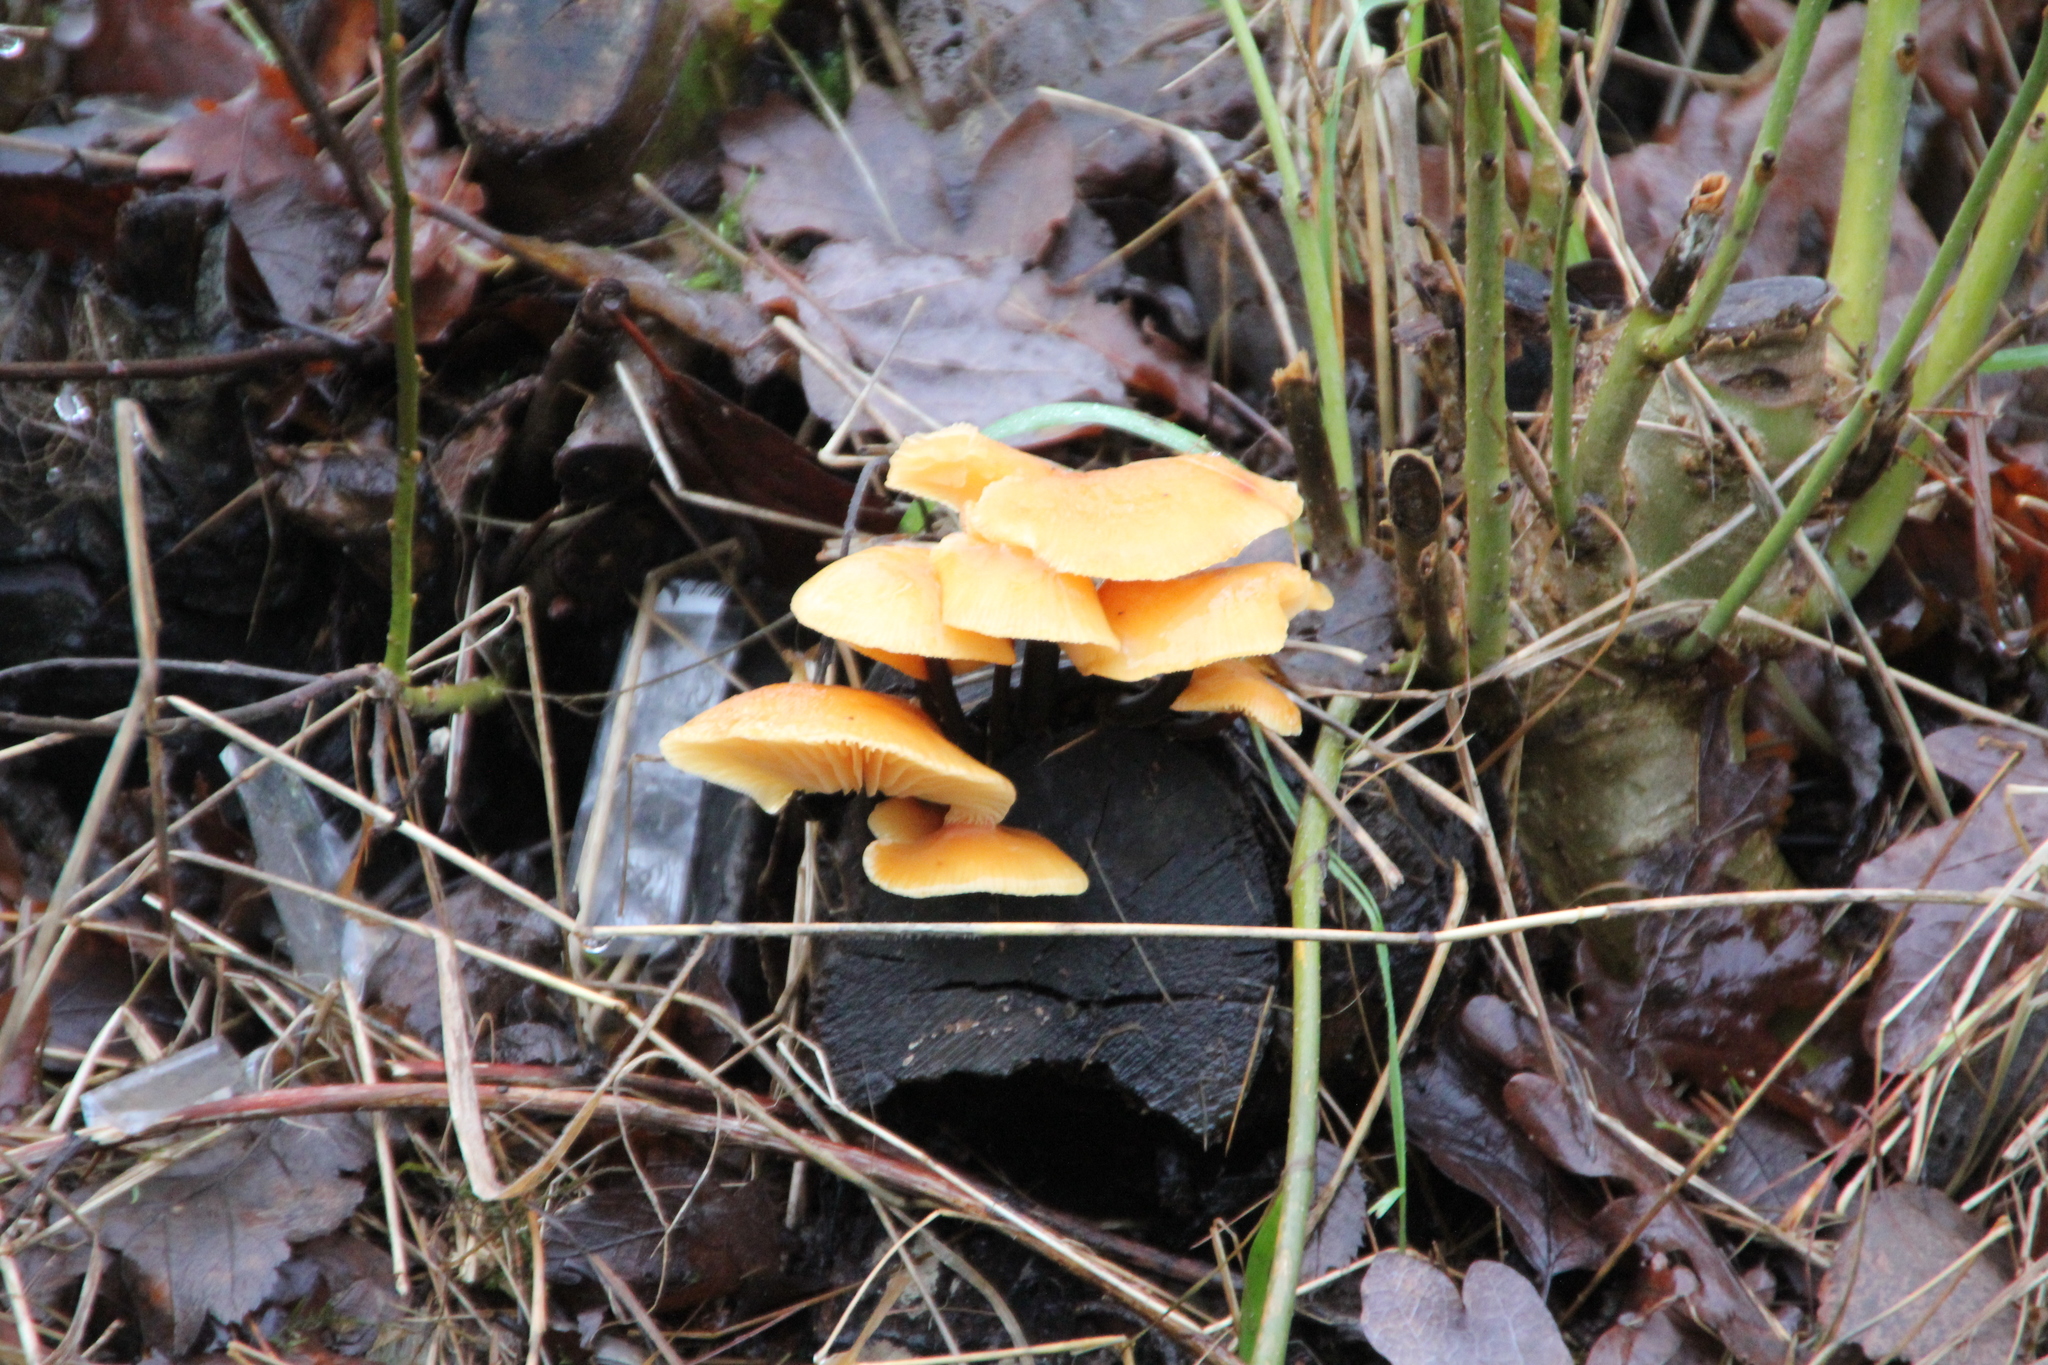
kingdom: Fungi
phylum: Basidiomycota
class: Agaricomycetes
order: Agaricales
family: Physalacriaceae
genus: Flammulina
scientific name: Flammulina
